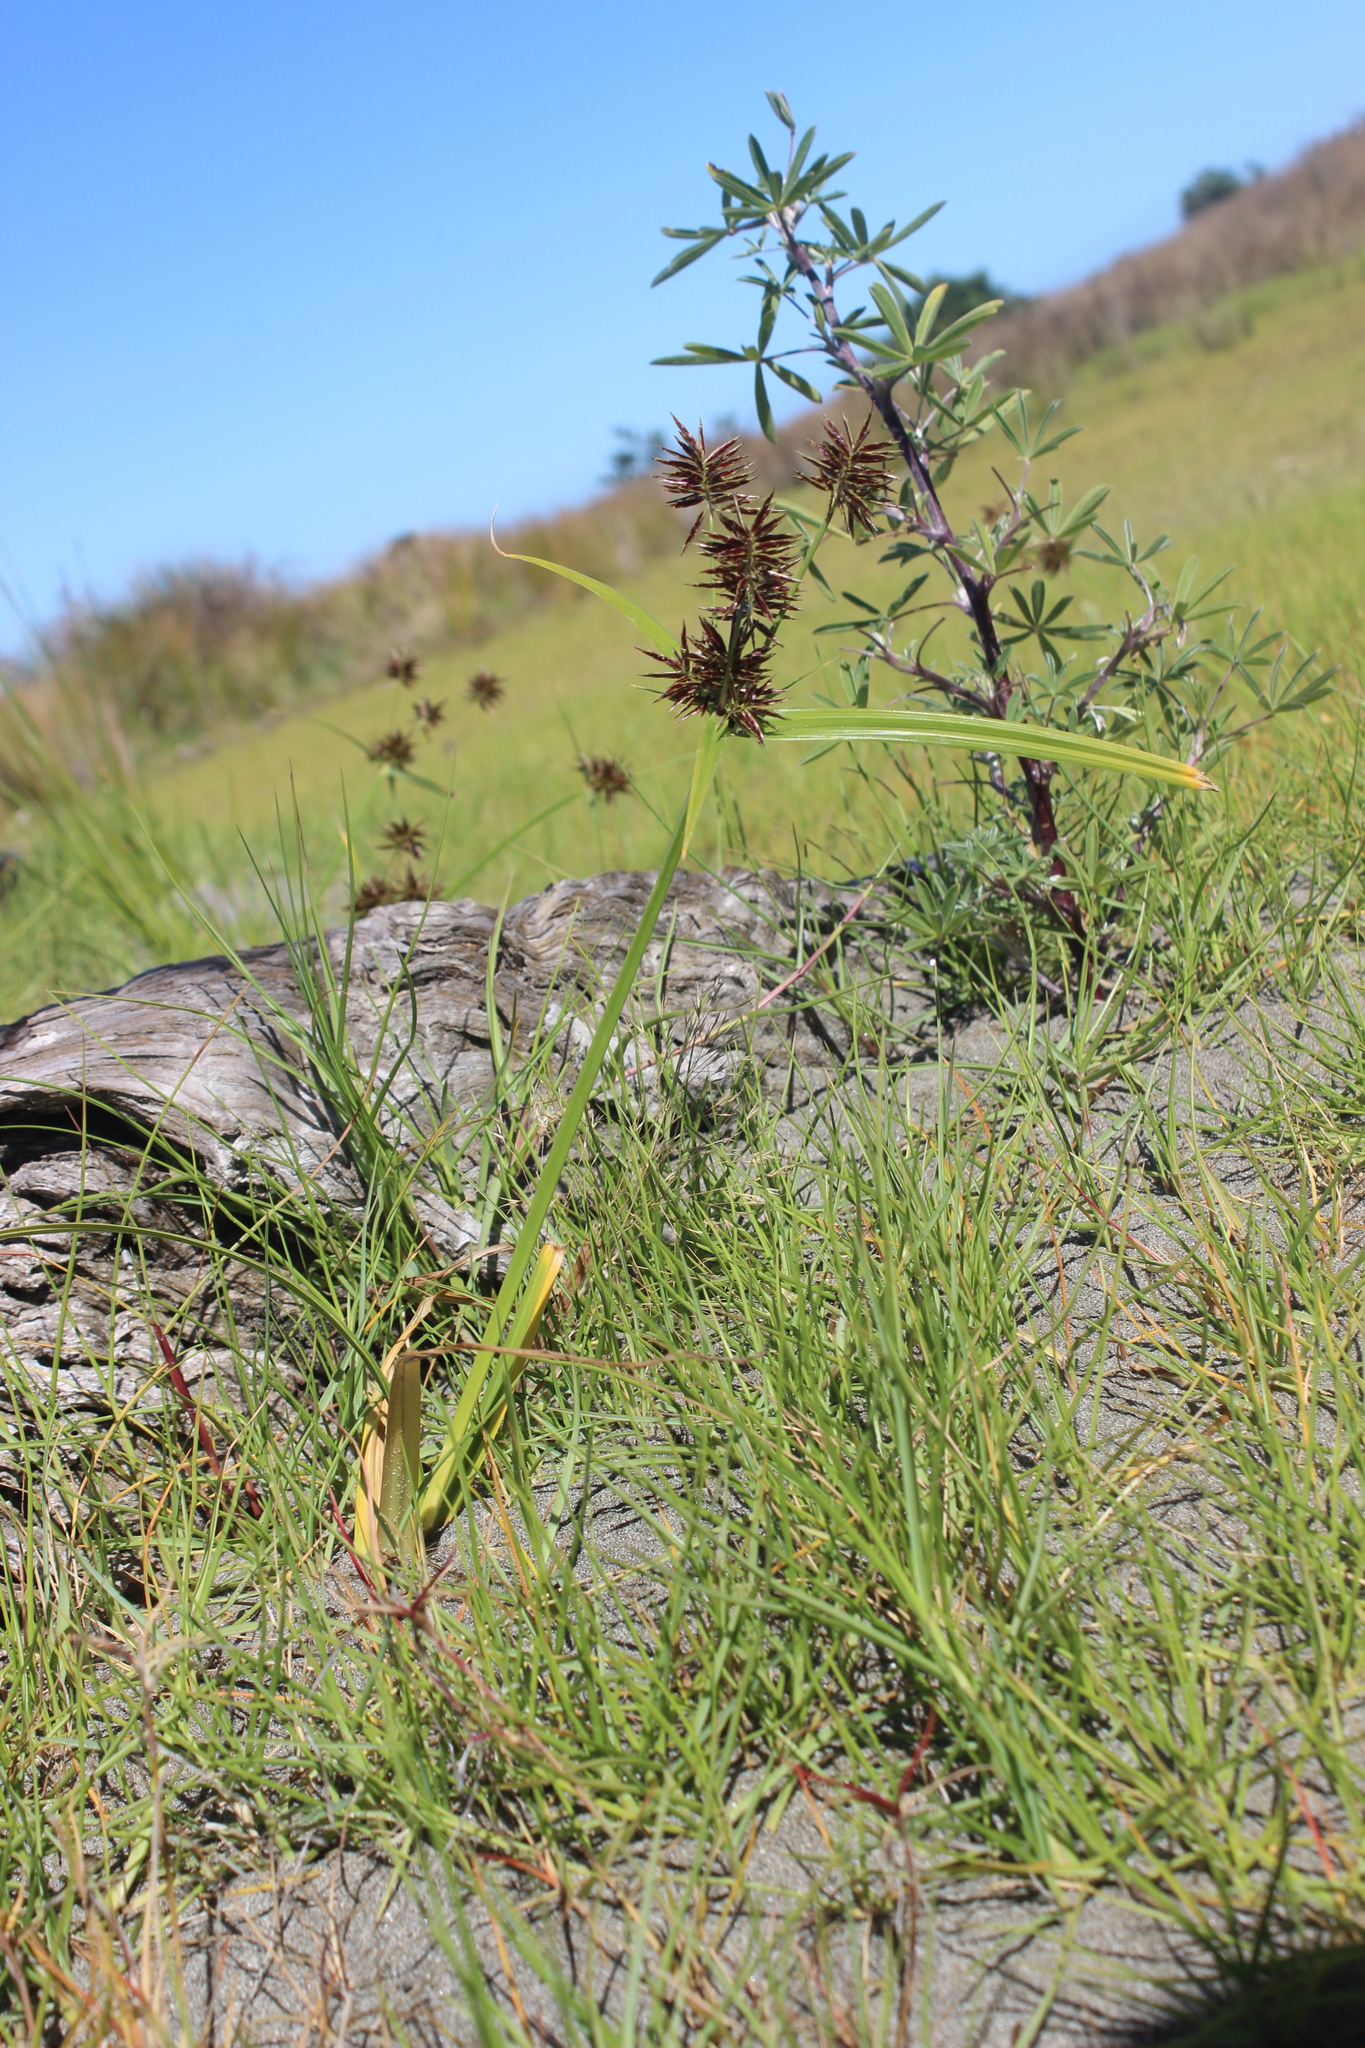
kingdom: Plantae
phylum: Tracheophyta
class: Liliopsida
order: Poales
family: Cyperaceae
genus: Cyperus
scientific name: Cyperus congestus
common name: Dense flat sedge
